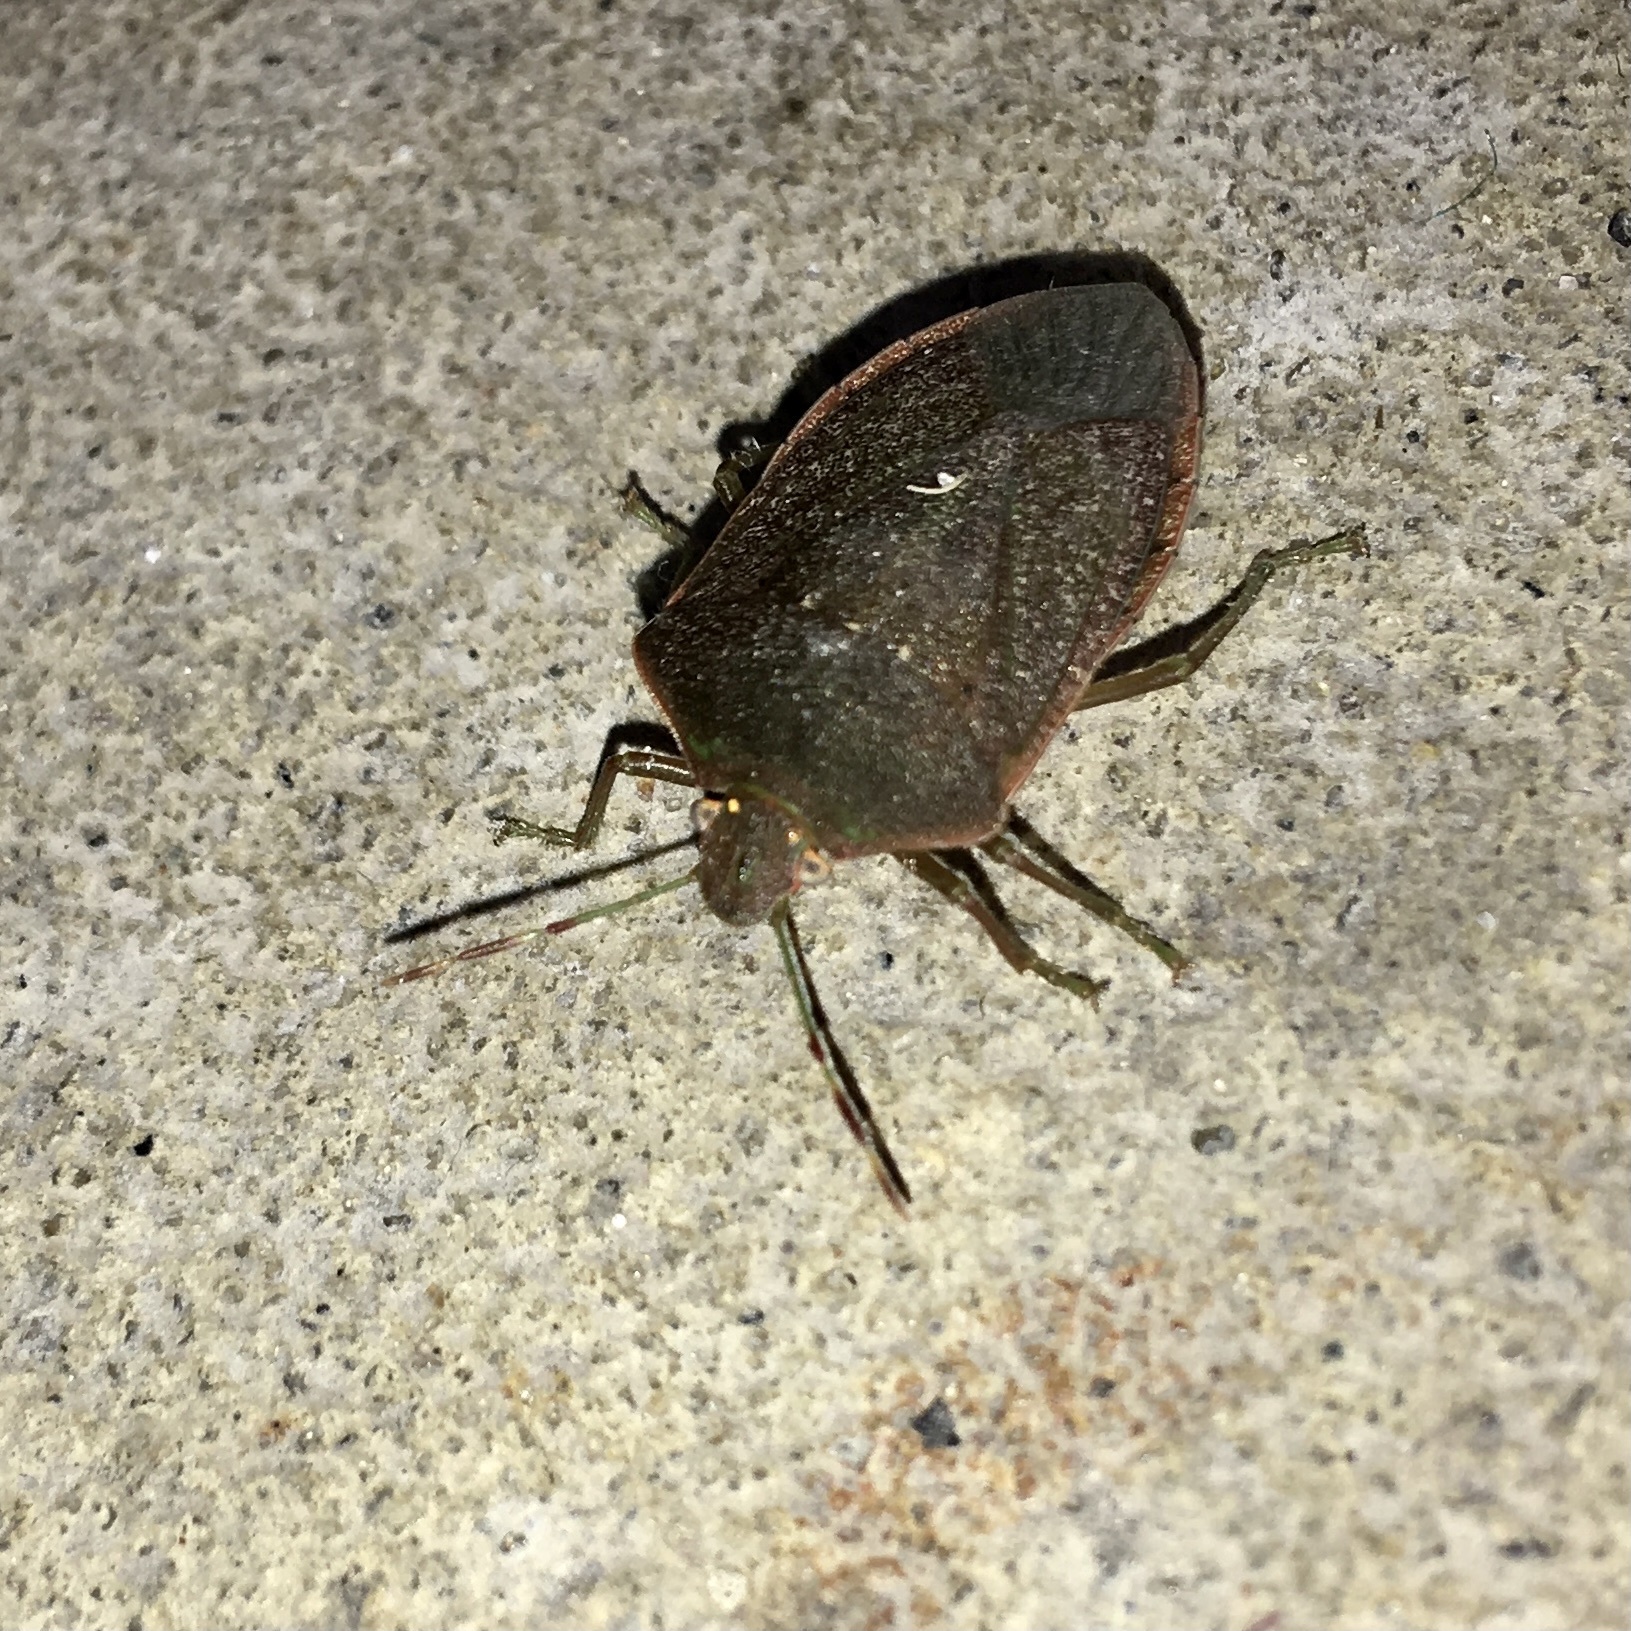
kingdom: Animalia
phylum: Arthropoda
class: Insecta
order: Hemiptera
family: Pentatomidae
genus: Nezara
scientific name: Nezara viridula
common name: Southern green stink bug
